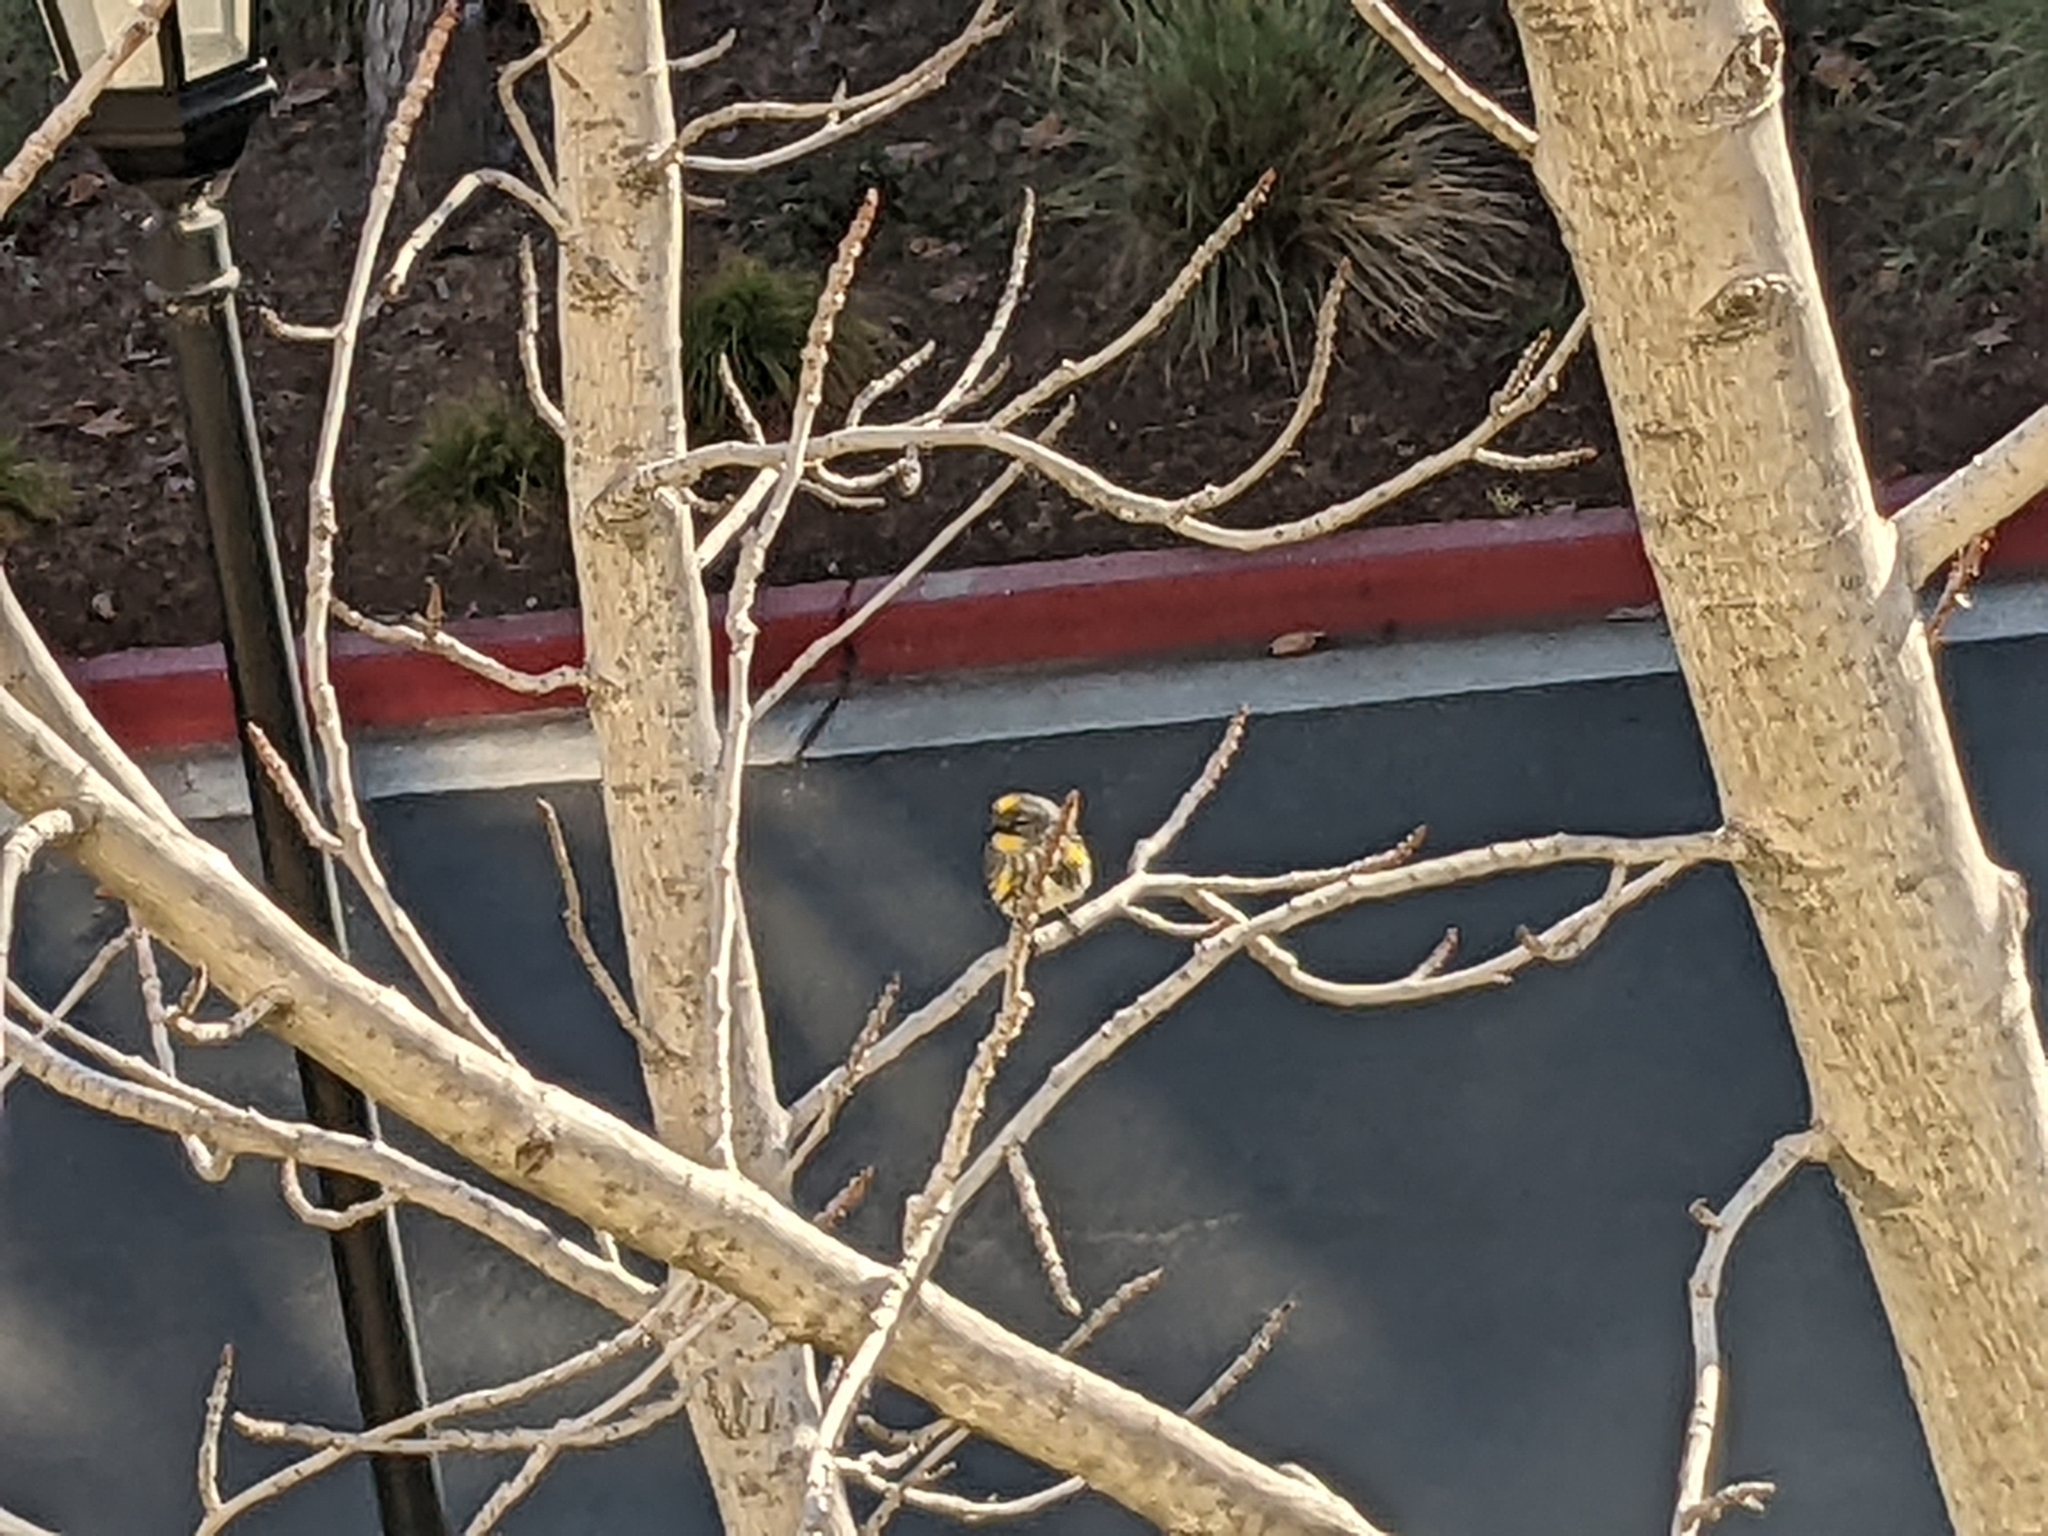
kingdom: Animalia
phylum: Chordata
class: Aves
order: Passeriformes
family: Parulidae
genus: Setophaga
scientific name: Setophaga auduboni
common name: Audubon's warbler
